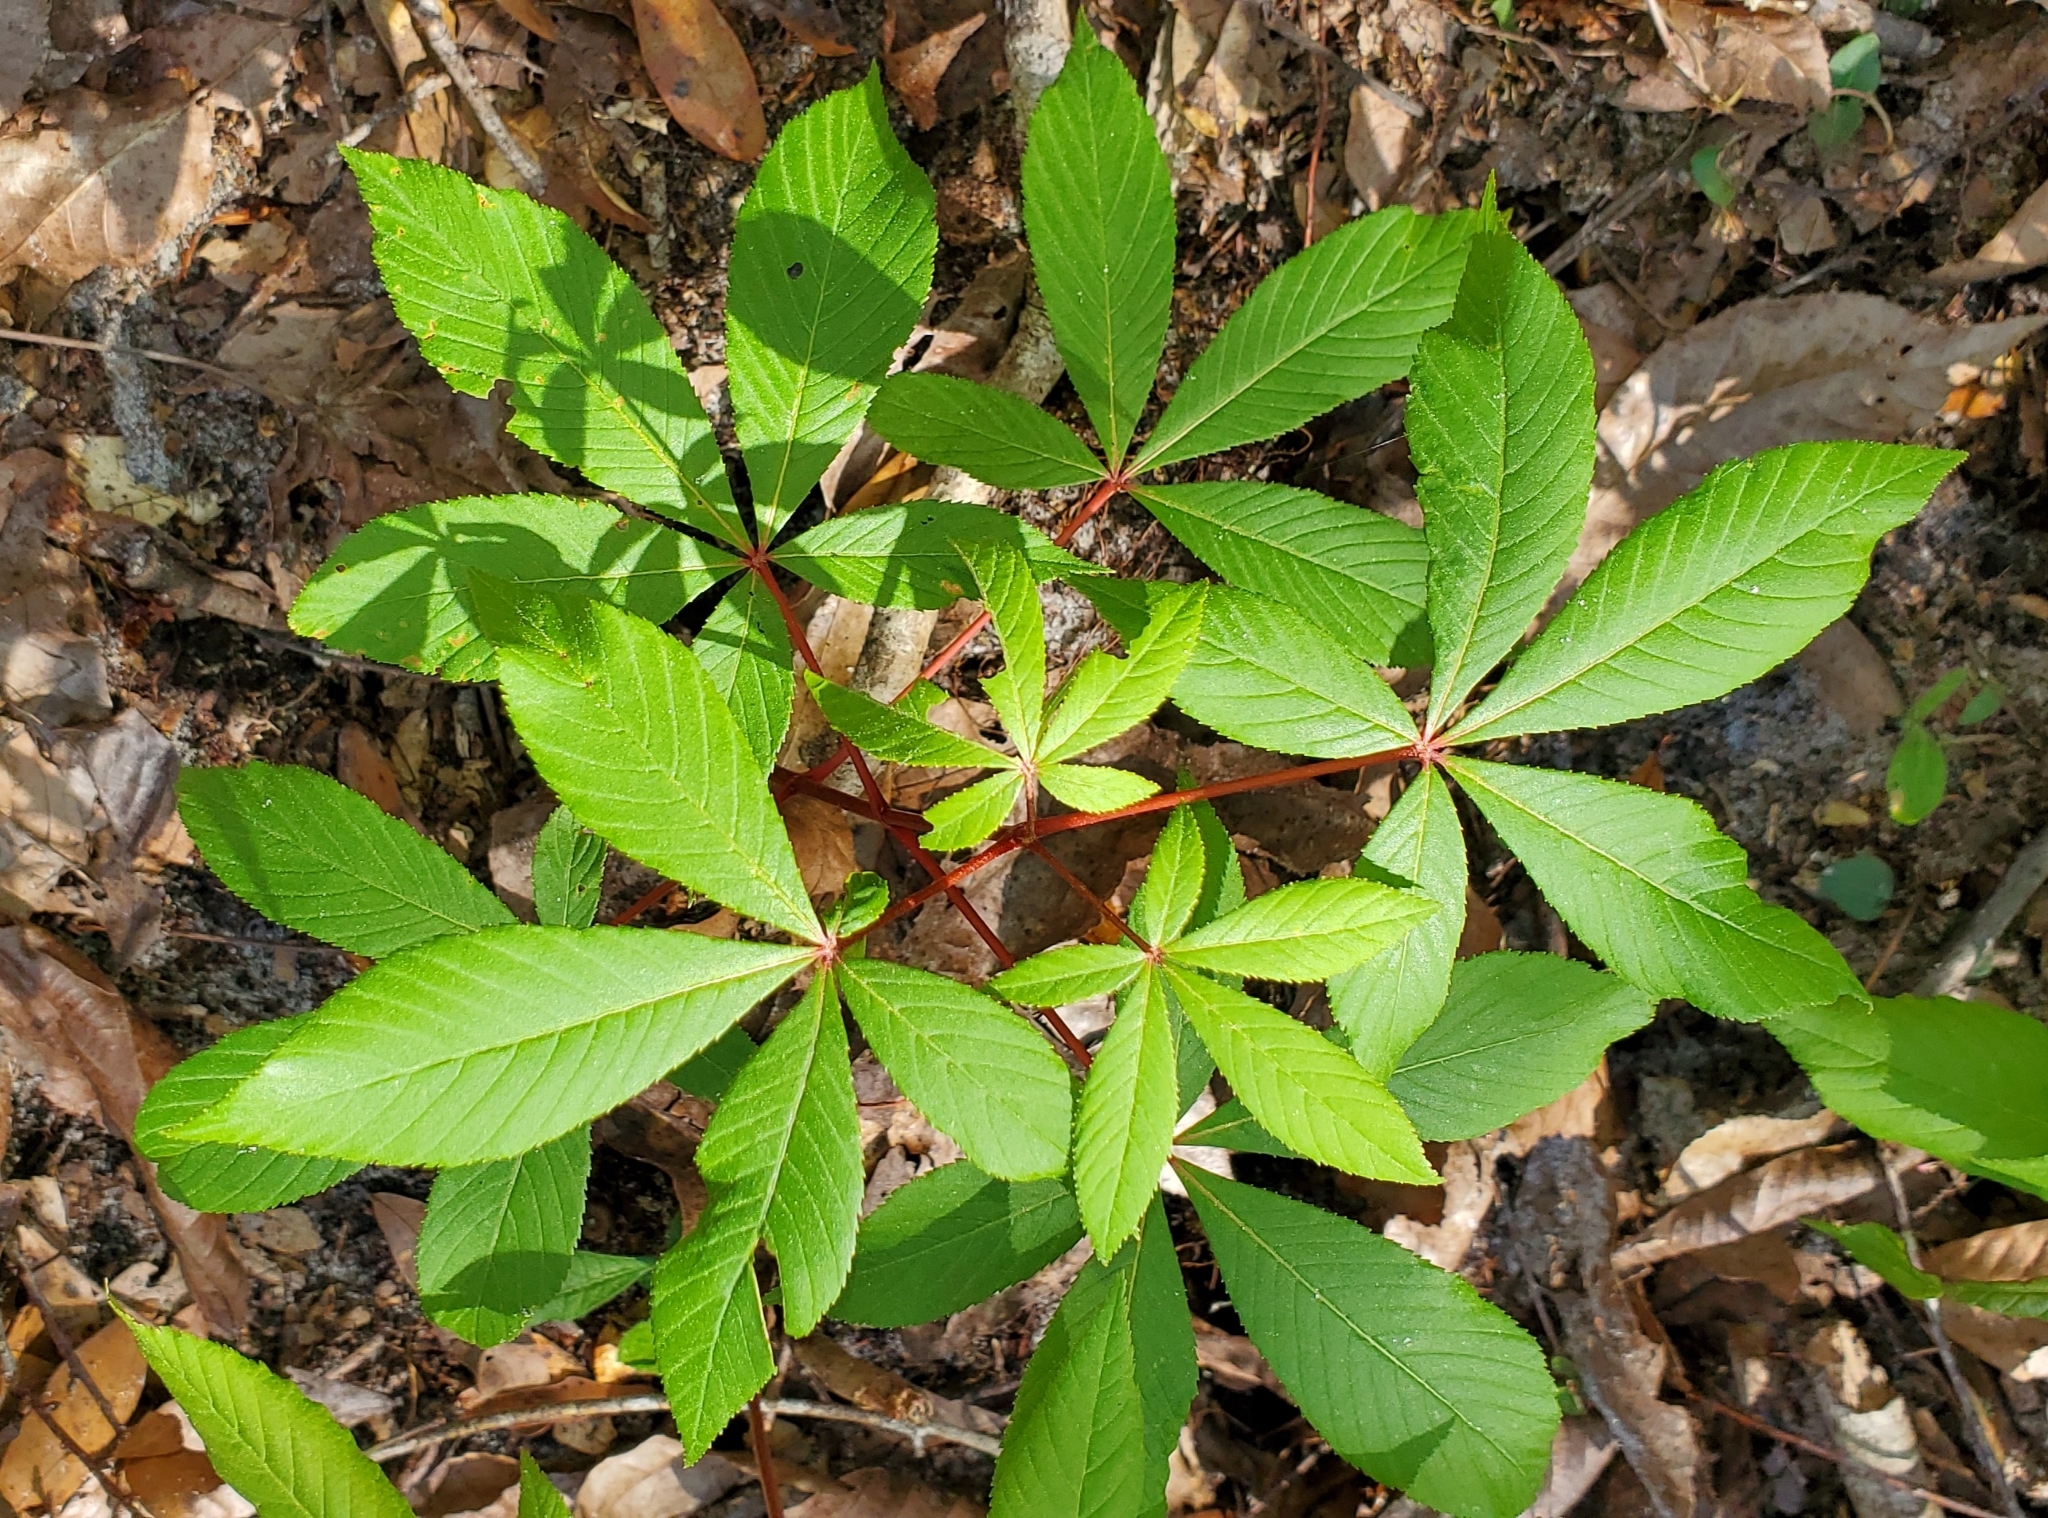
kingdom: Plantae
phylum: Tracheophyta
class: Magnoliopsida
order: Sapindales
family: Sapindaceae
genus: Aesculus
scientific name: Aesculus pavia
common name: Red buckeye
